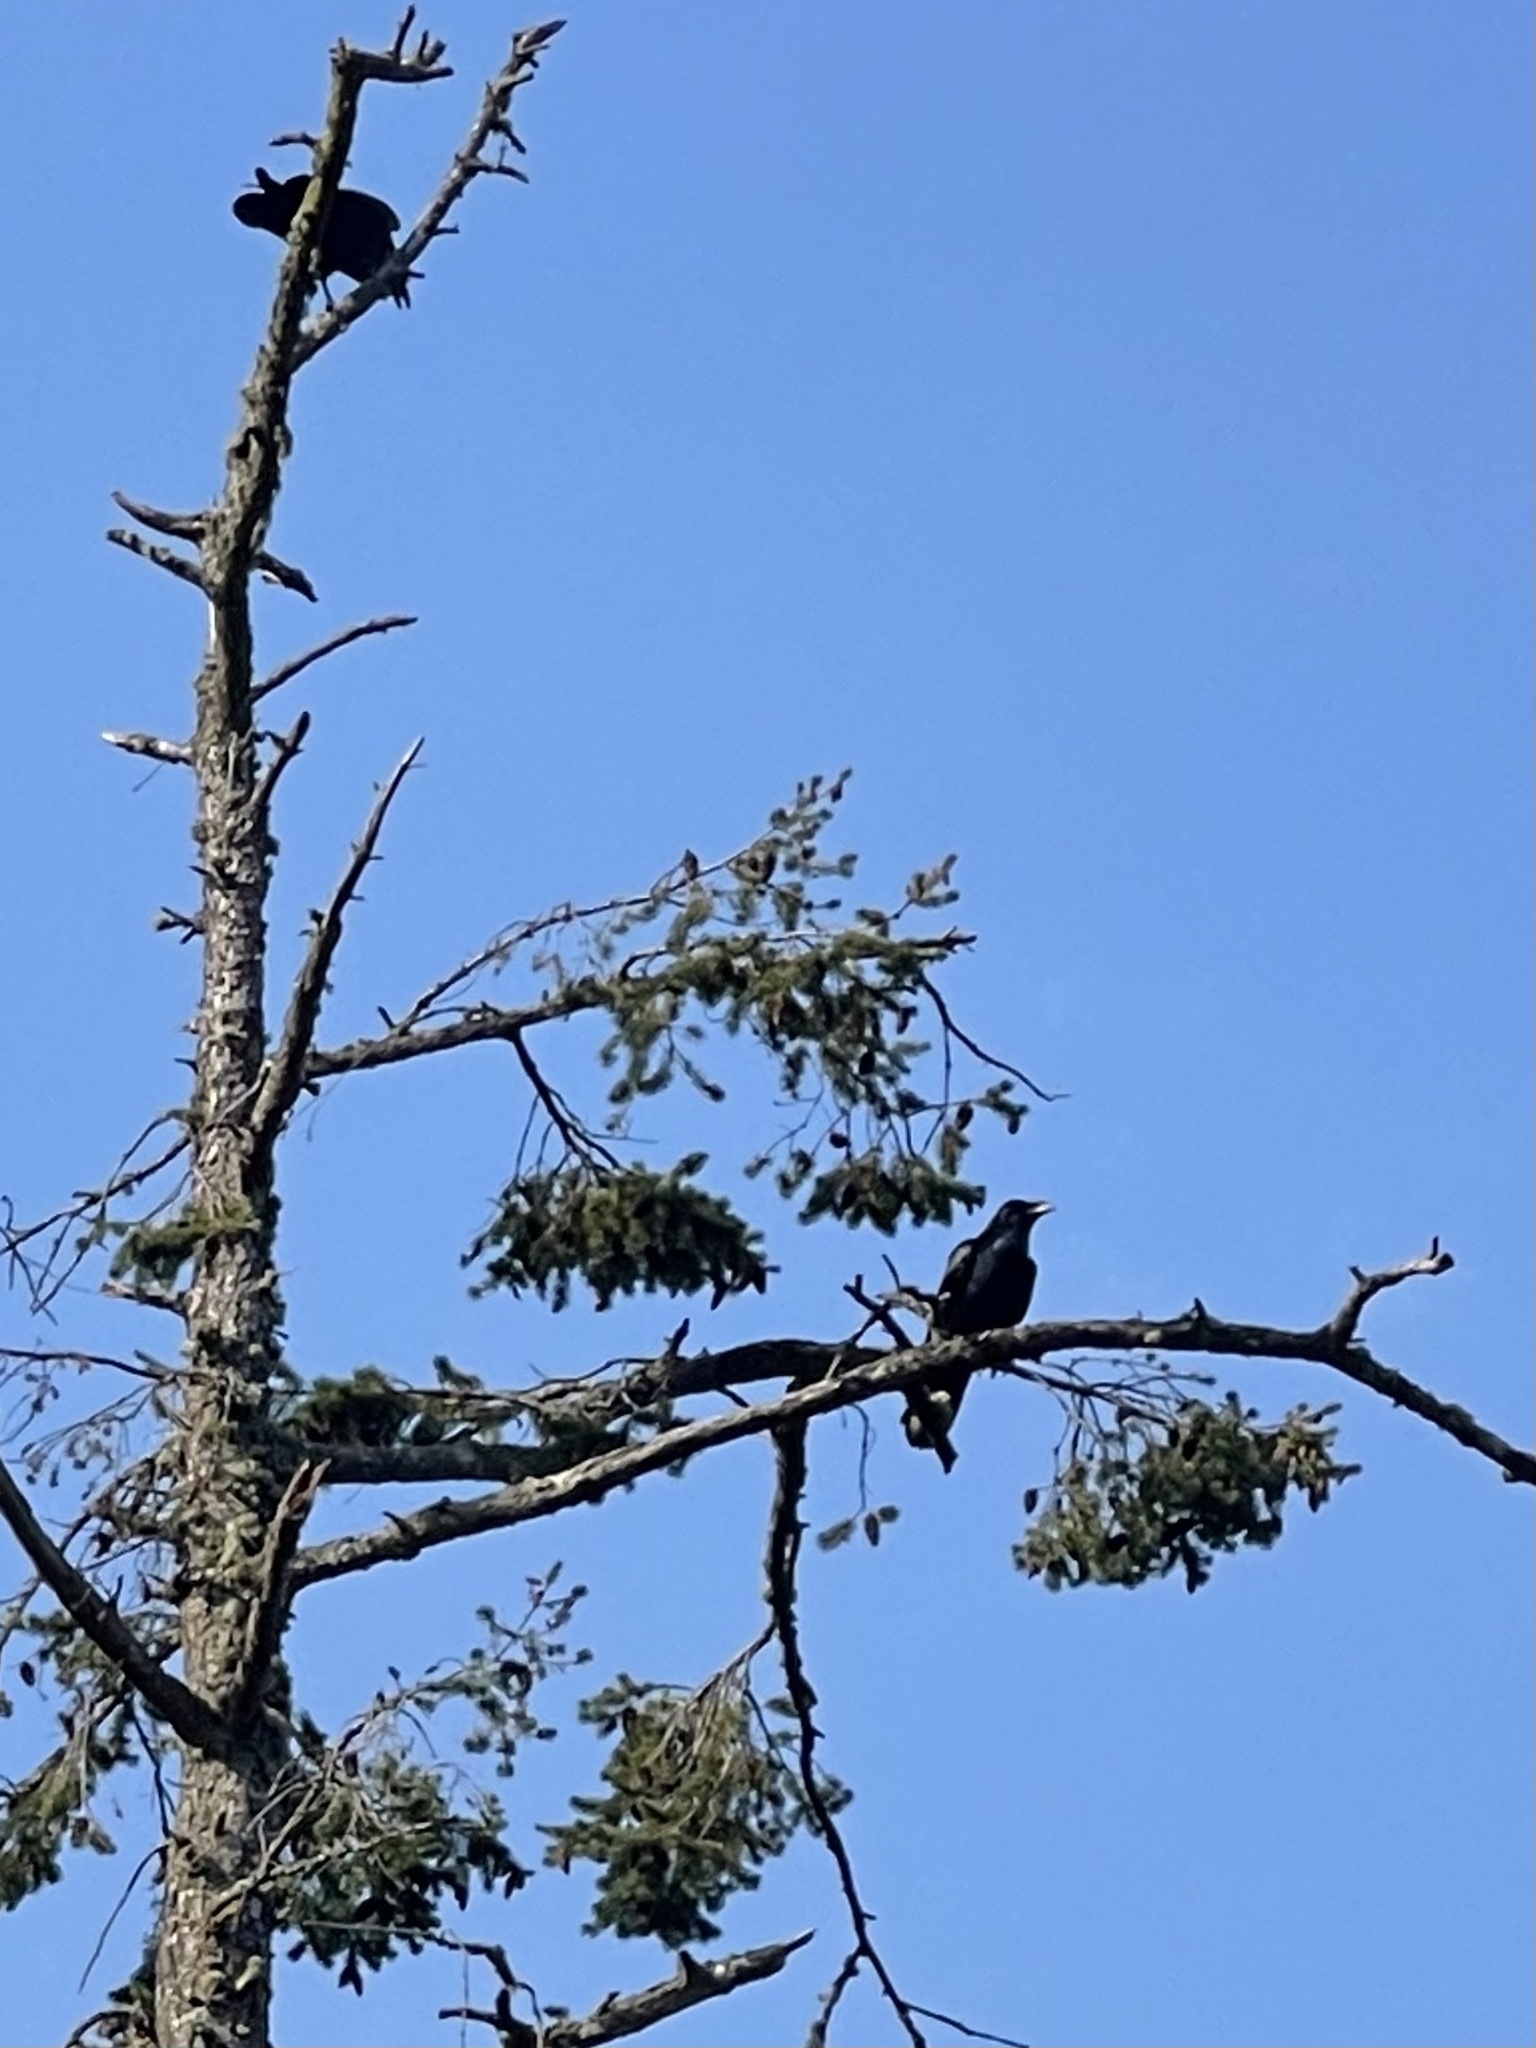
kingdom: Animalia
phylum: Chordata
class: Aves
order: Passeriformes
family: Corvidae
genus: Corvus
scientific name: Corvus corax
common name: Common raven
